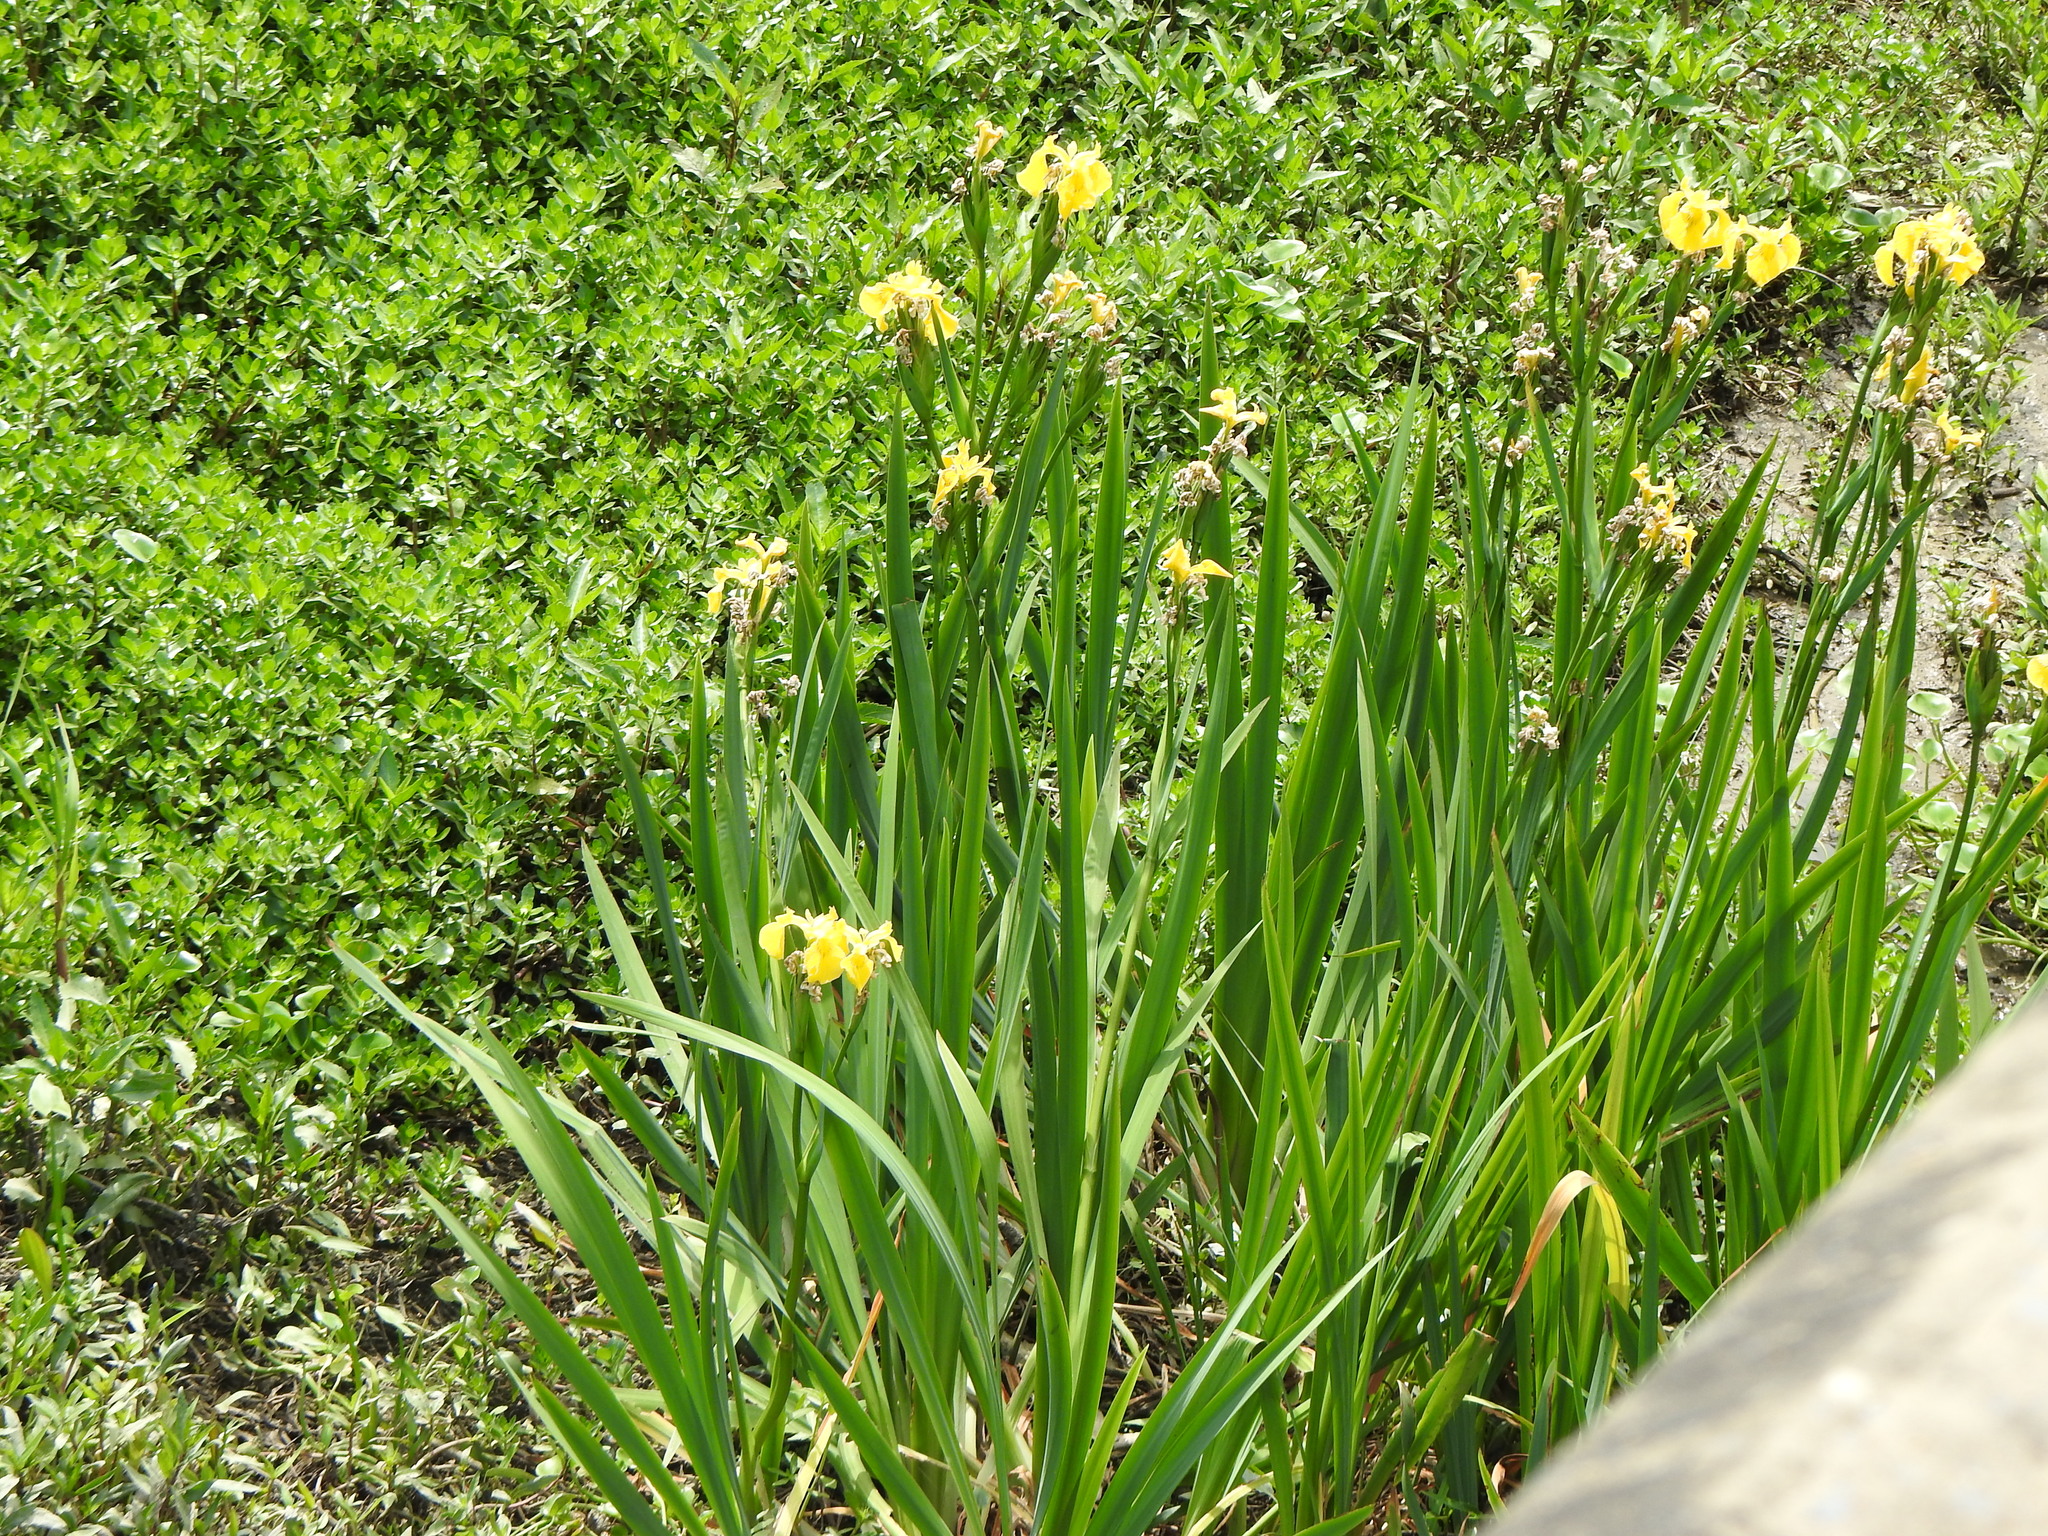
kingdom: Plantae
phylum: Tracheophyta
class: Liliopsida
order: Asparagales
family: Iridaceae
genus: Iris
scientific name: Iris pseudacorus
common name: Yellow flag
